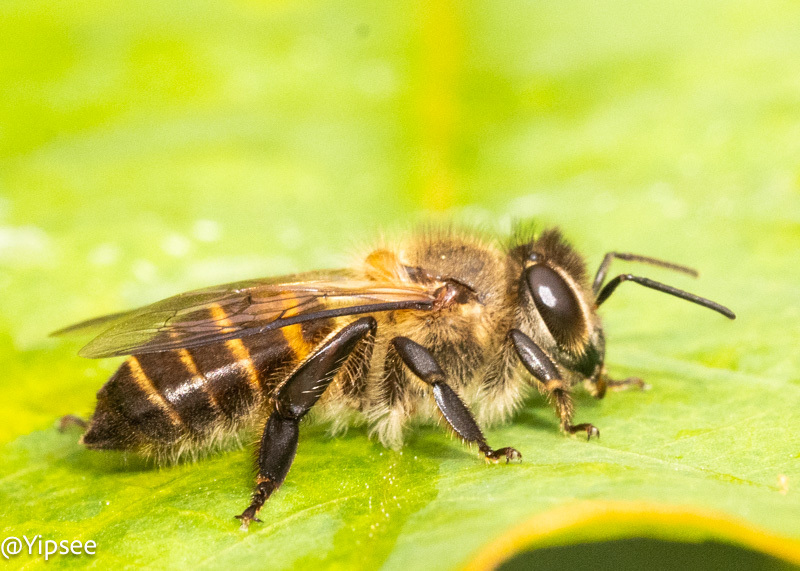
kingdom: Animalia
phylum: Arthropoda
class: Insecta
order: Hymenoptera
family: Apidae
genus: Apis
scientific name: Apis cerana
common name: Honey bee
